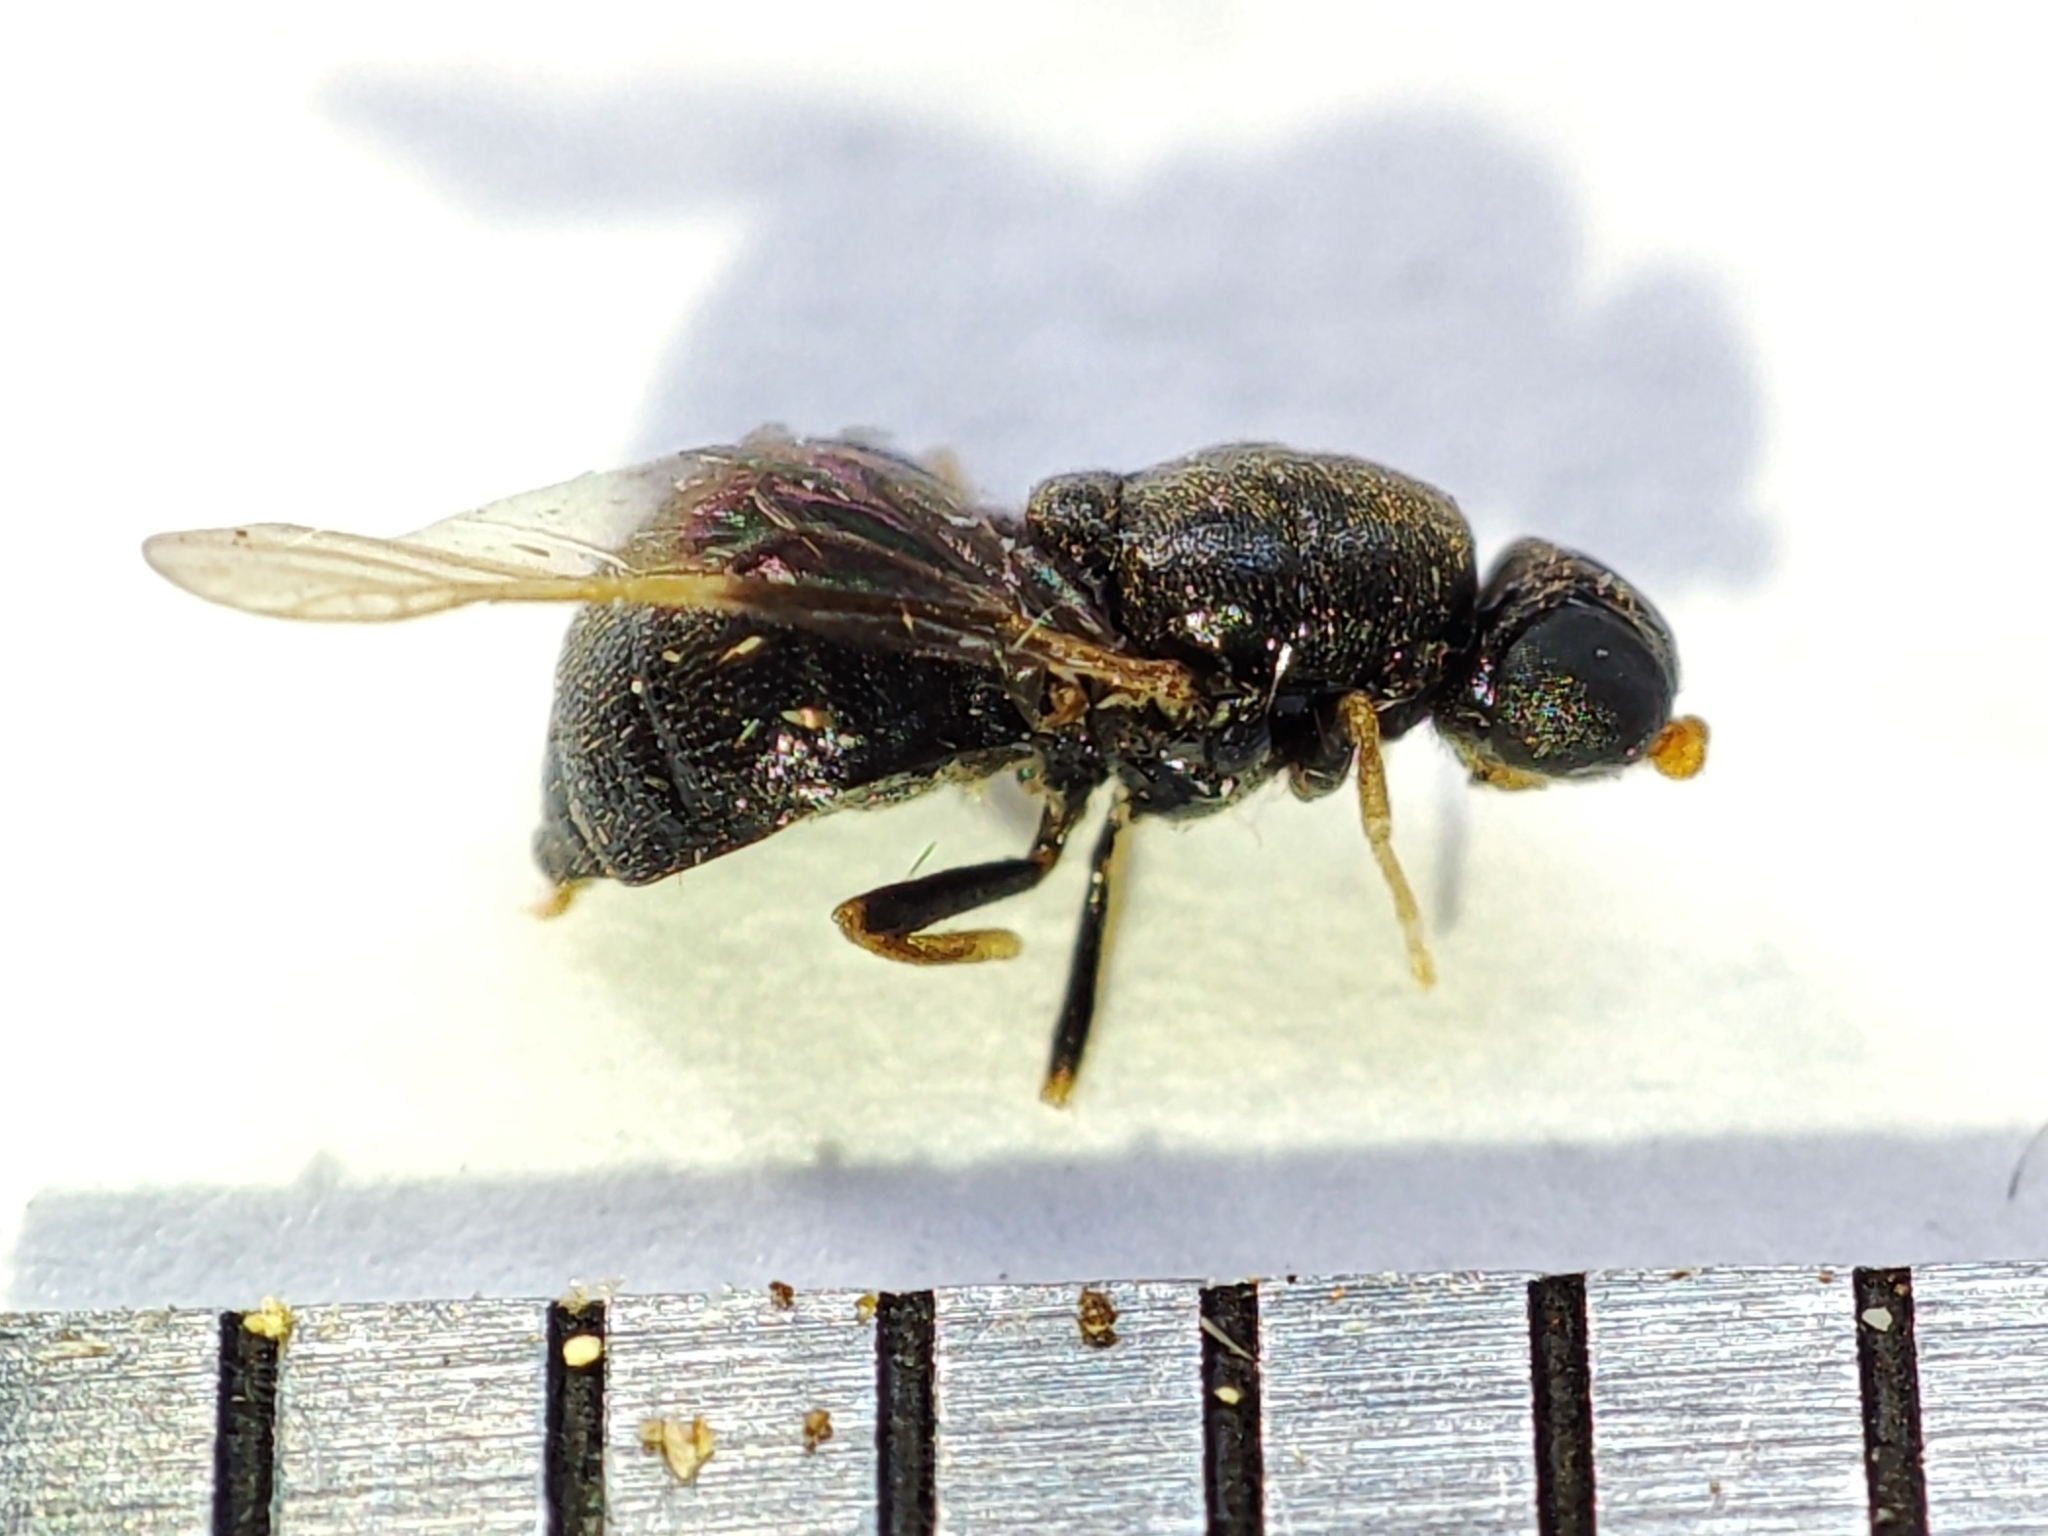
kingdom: Animalia
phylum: Arthropoda
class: Insecta
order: Diptera
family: Stratiomyidae
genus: Pachygaster
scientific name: Pachygaster atra
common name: Dark-winged black
